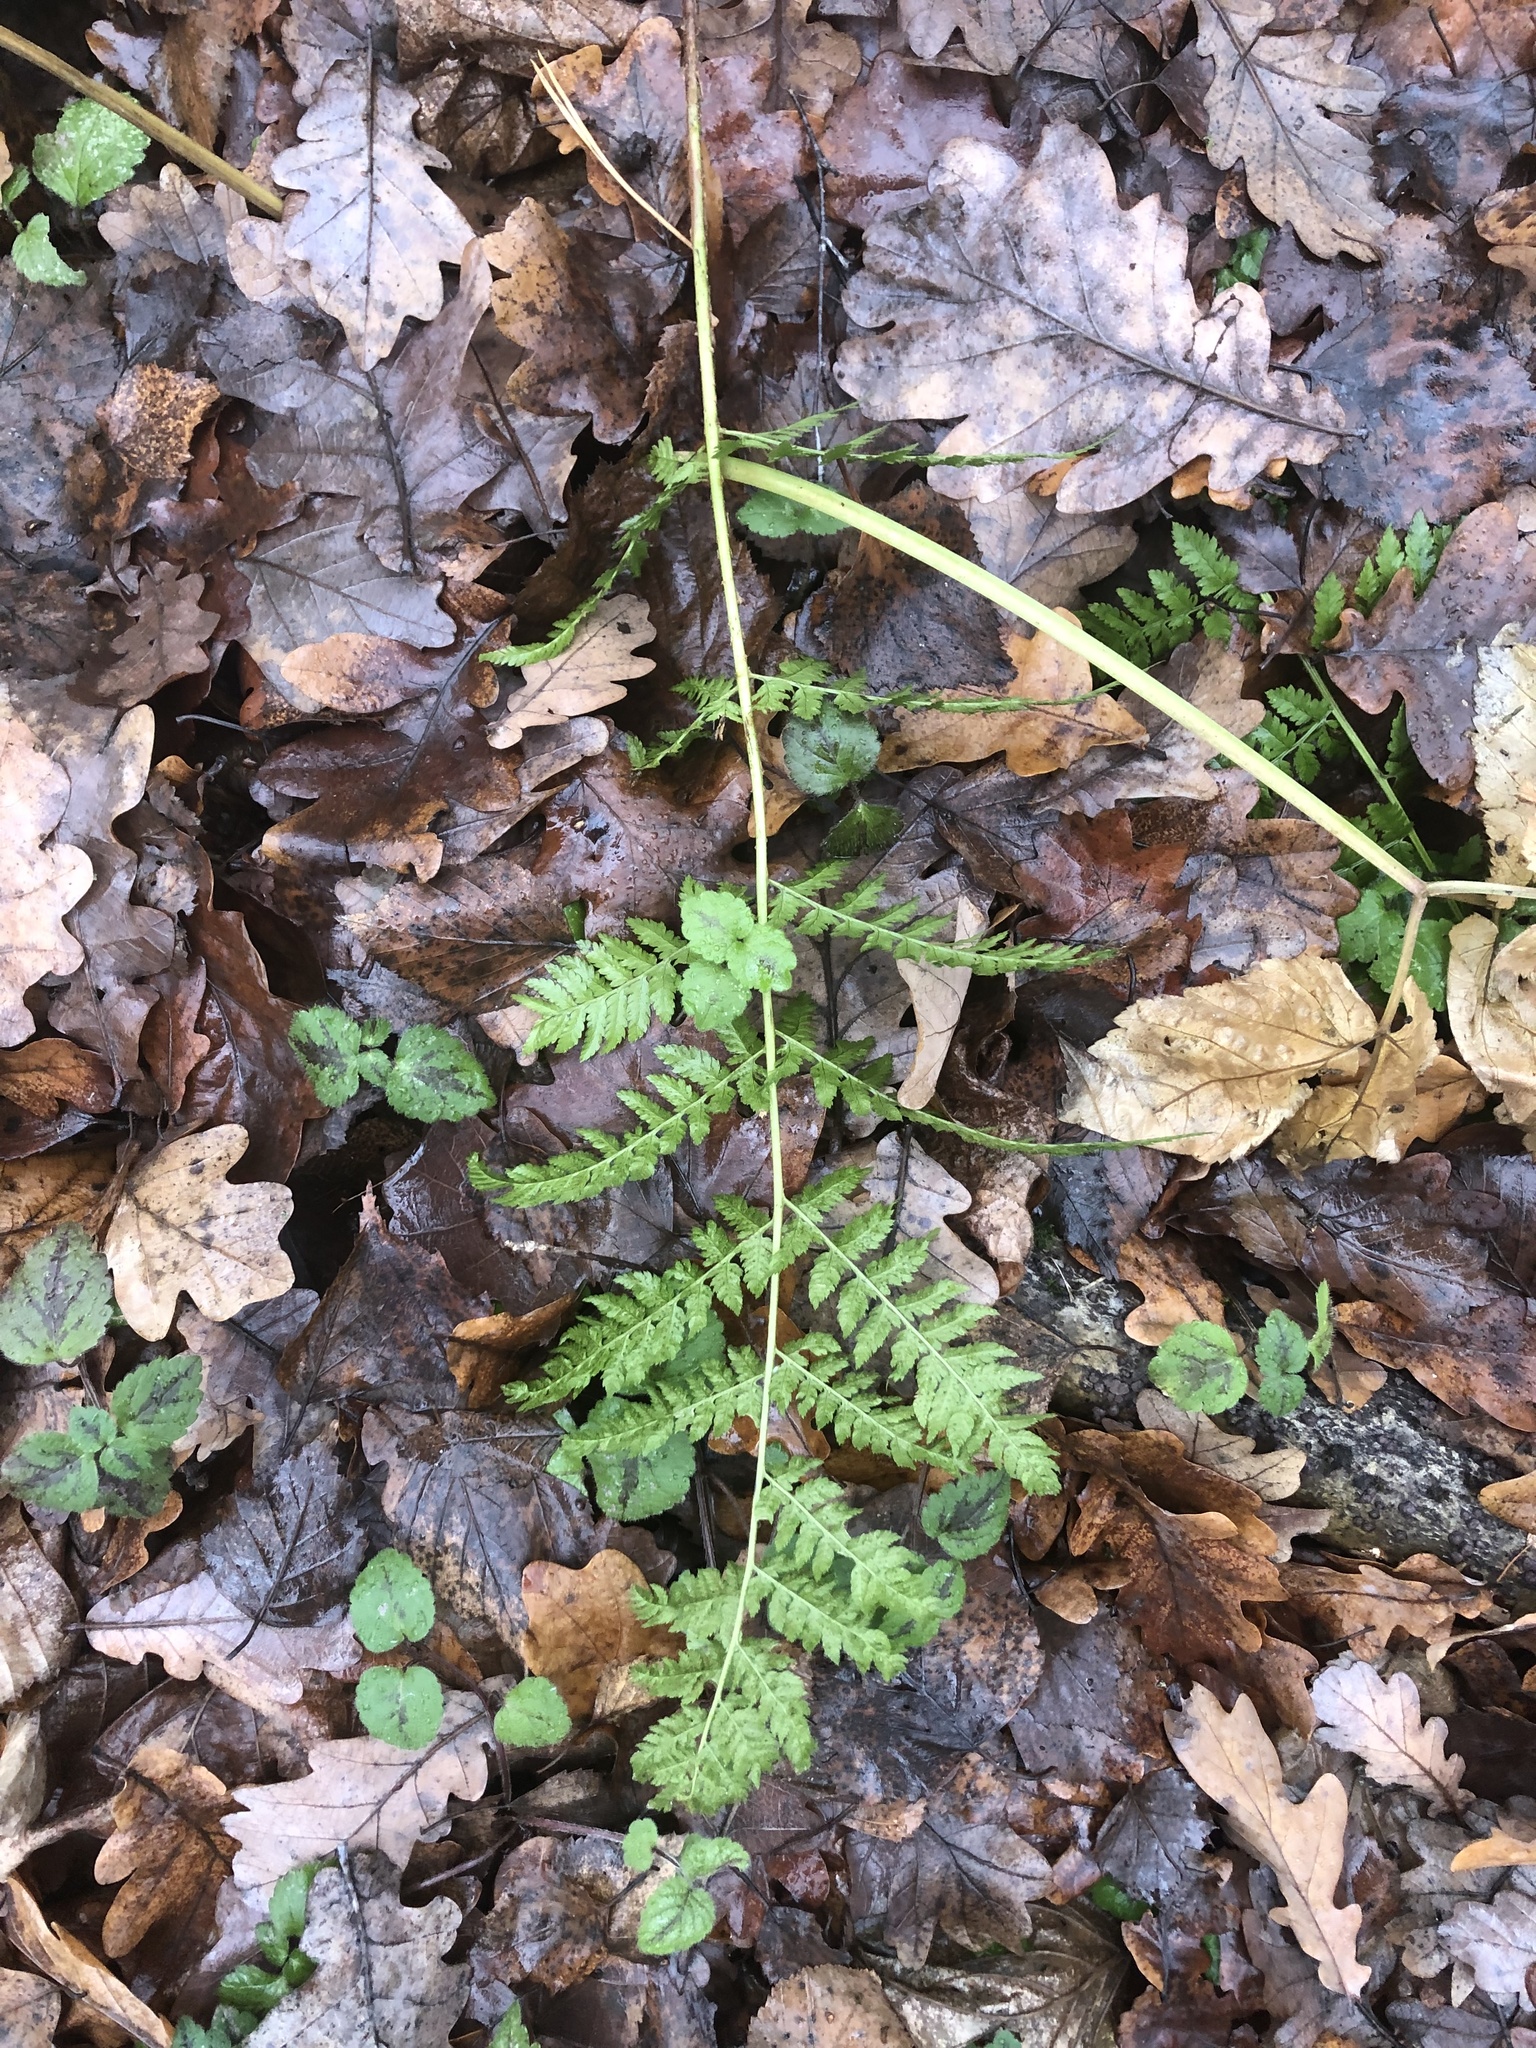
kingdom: Plantae
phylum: Tracheophyta
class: Polypodiopsida
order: Polypodiales
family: Dryopteridaceae
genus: Dryopteris
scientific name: Dryopteris carthusiana
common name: Narrow buckler-fern
